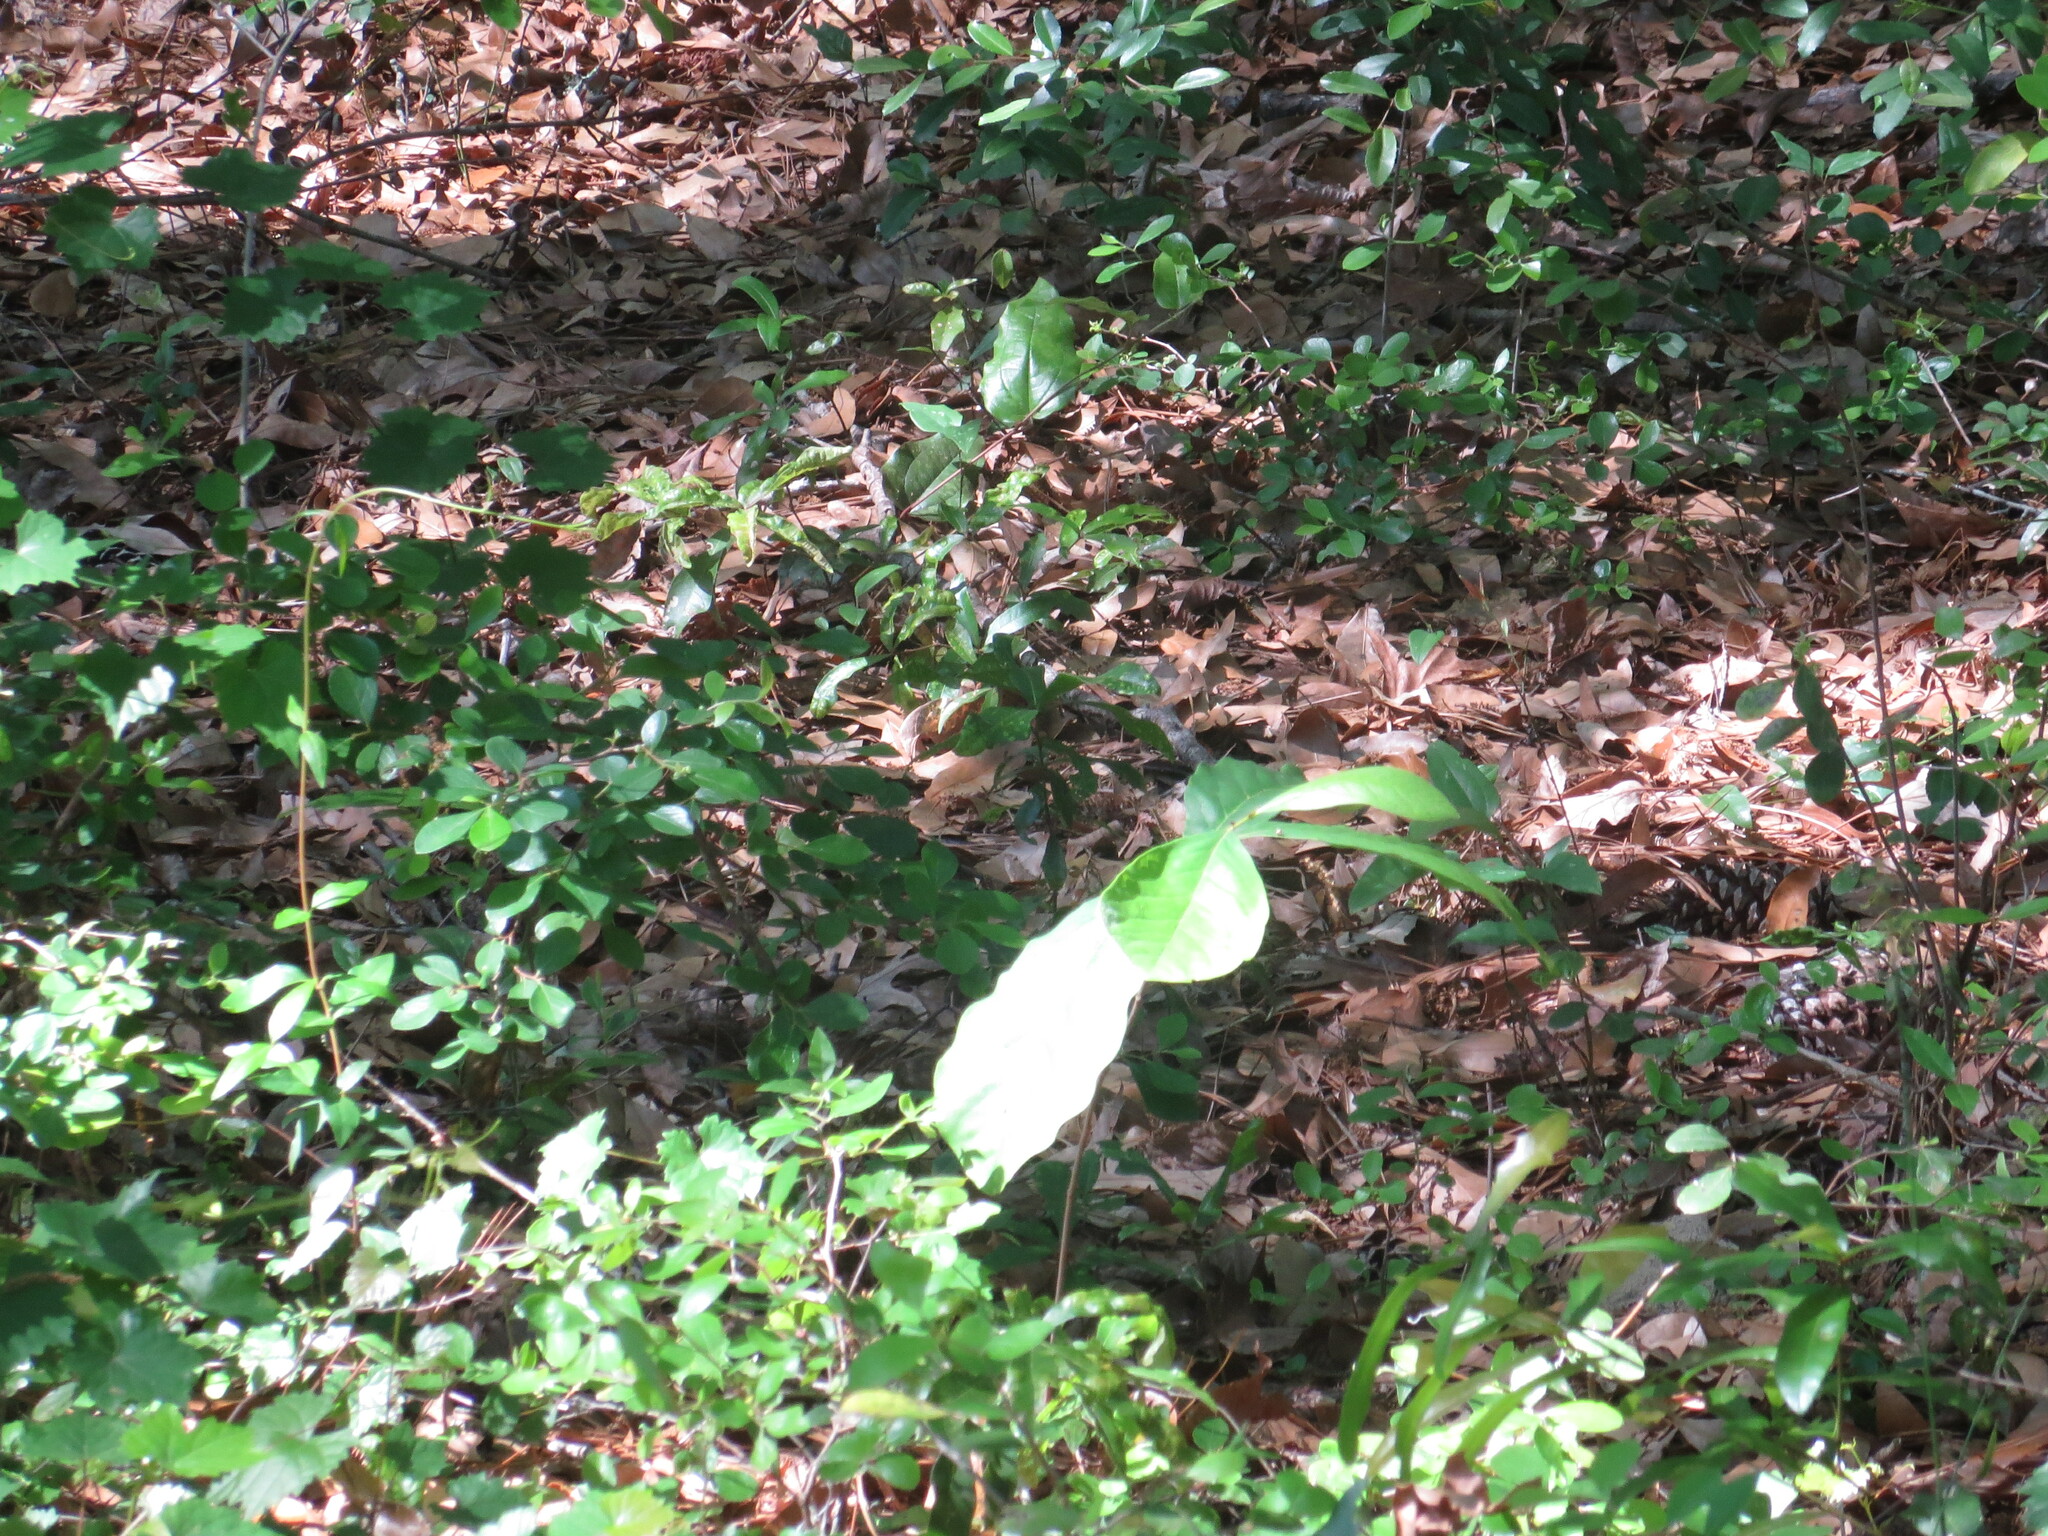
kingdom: Plantae
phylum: Tracheophyta
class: Magnoliopsida
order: Magnoliales
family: Annonaceae
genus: Asimina
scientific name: Asimina parviflora
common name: Dwarf pawpaw
